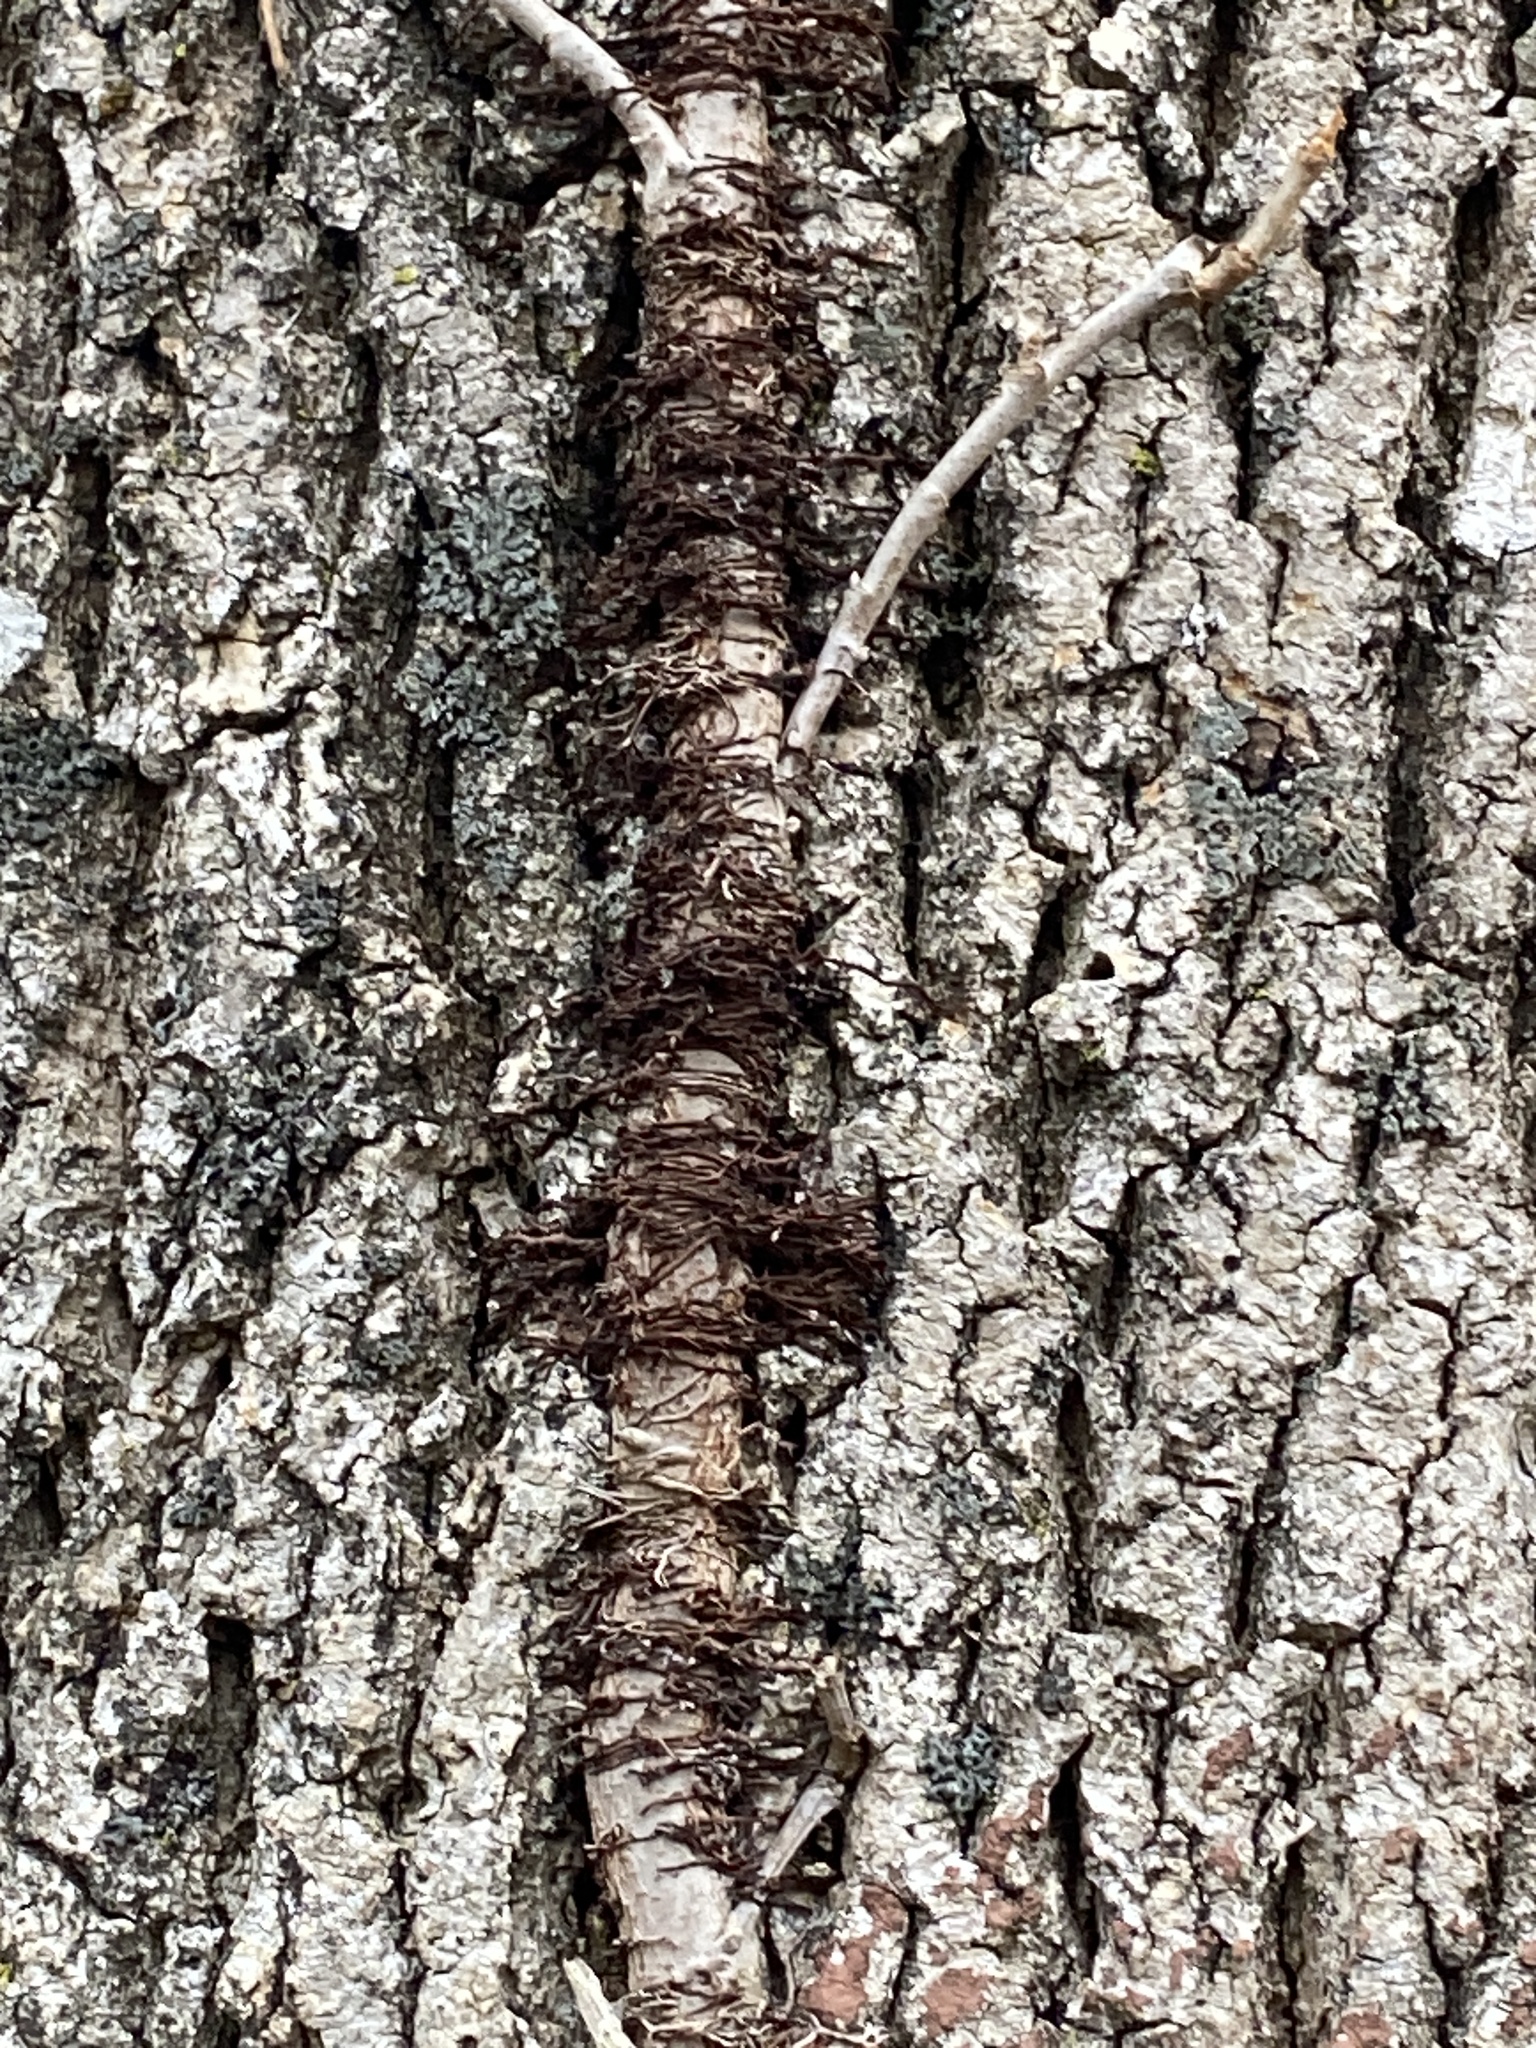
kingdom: Plantae
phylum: Tracheophyta
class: Magnoliopsida
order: Sapindales
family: Anacardiaceae
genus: Toxicodendron
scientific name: Toxicodendron radicans
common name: Poison ivy
